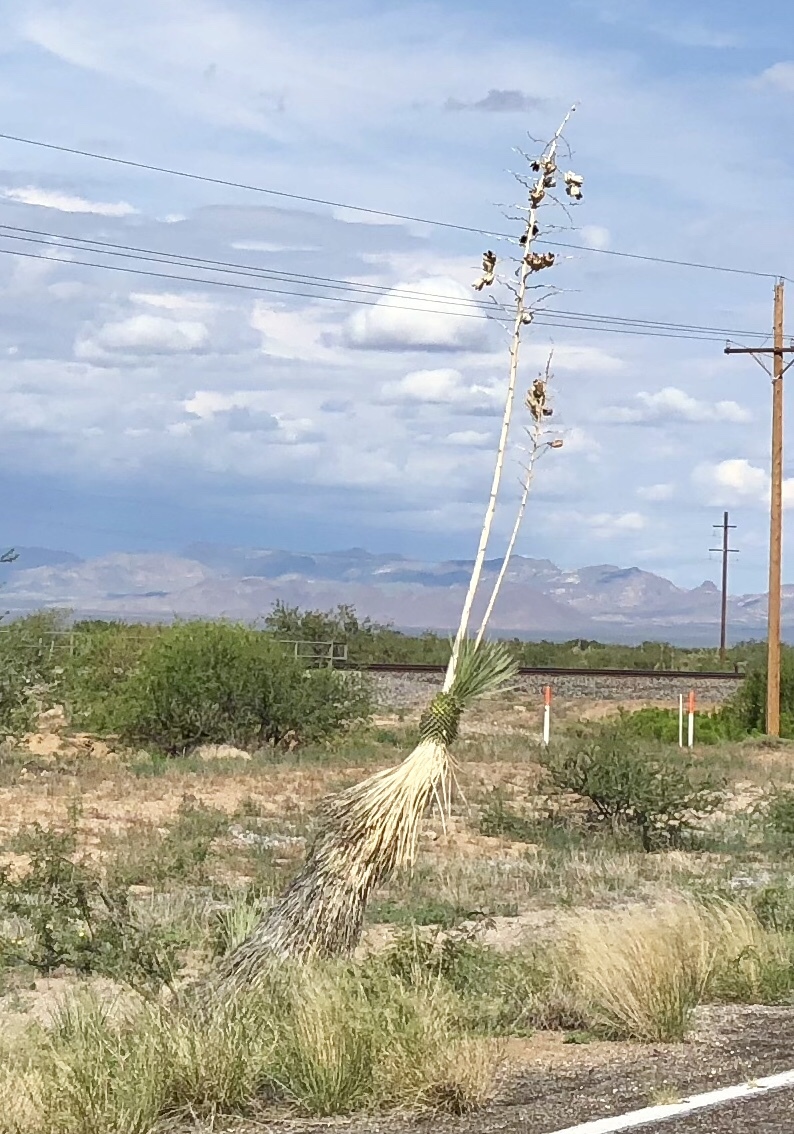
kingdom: Plantae
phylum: Tracheophyta
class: Liliopsida
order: Asparagales
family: Asparagaceae
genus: Yucca
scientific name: Yucca elata
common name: Palmella
